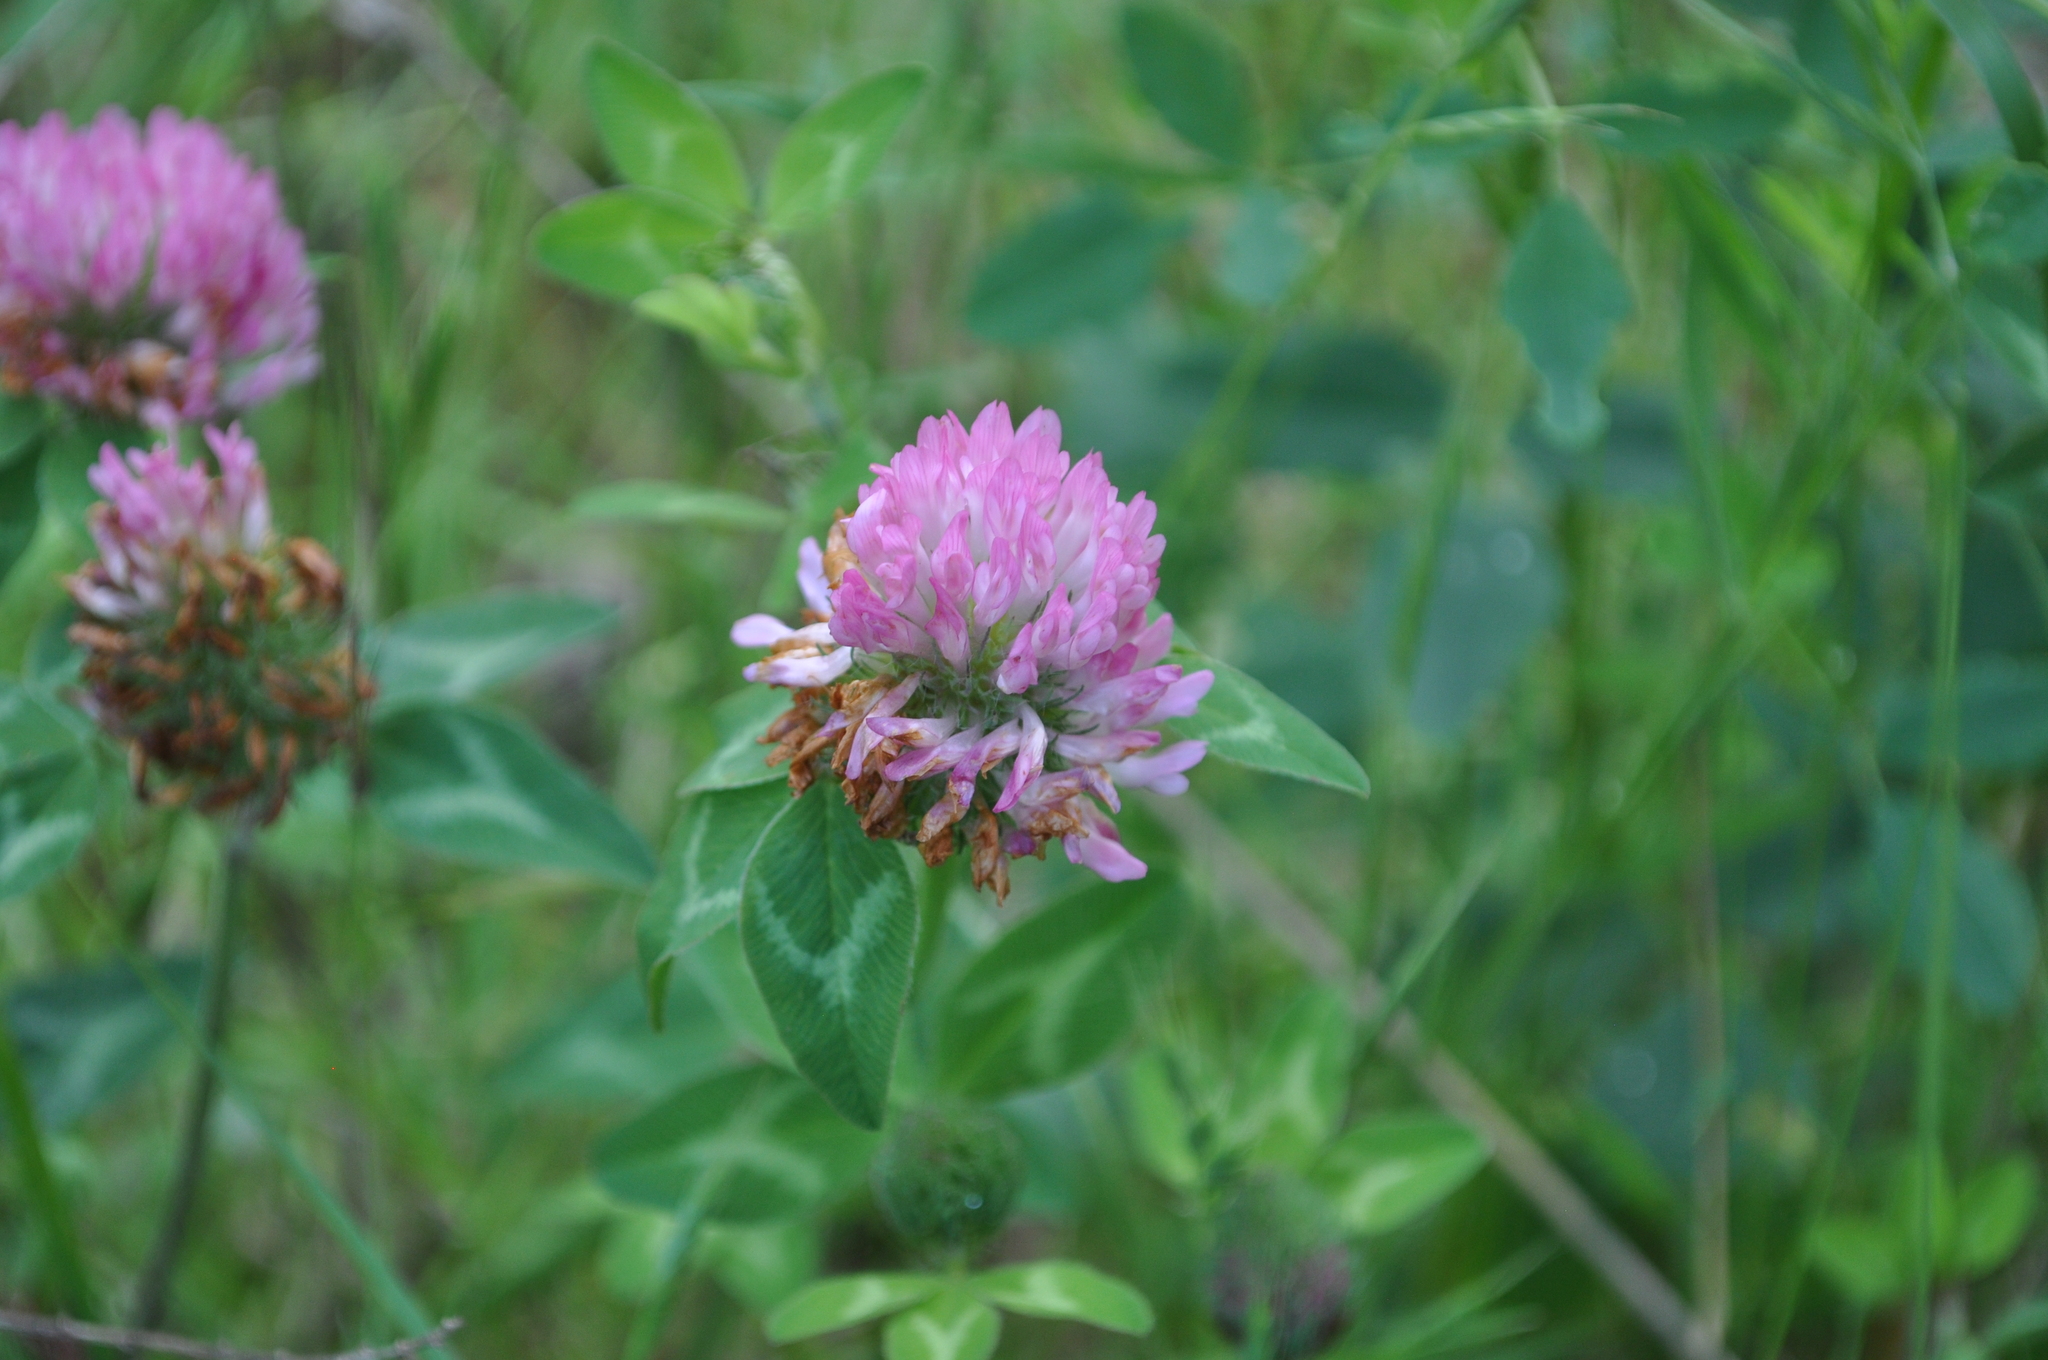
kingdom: Plantae
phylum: Tracheophyta
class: Magnoliopsida
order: Fabales
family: Fabaceae
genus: Trifolium
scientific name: Trifolium pratense
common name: Red clover
